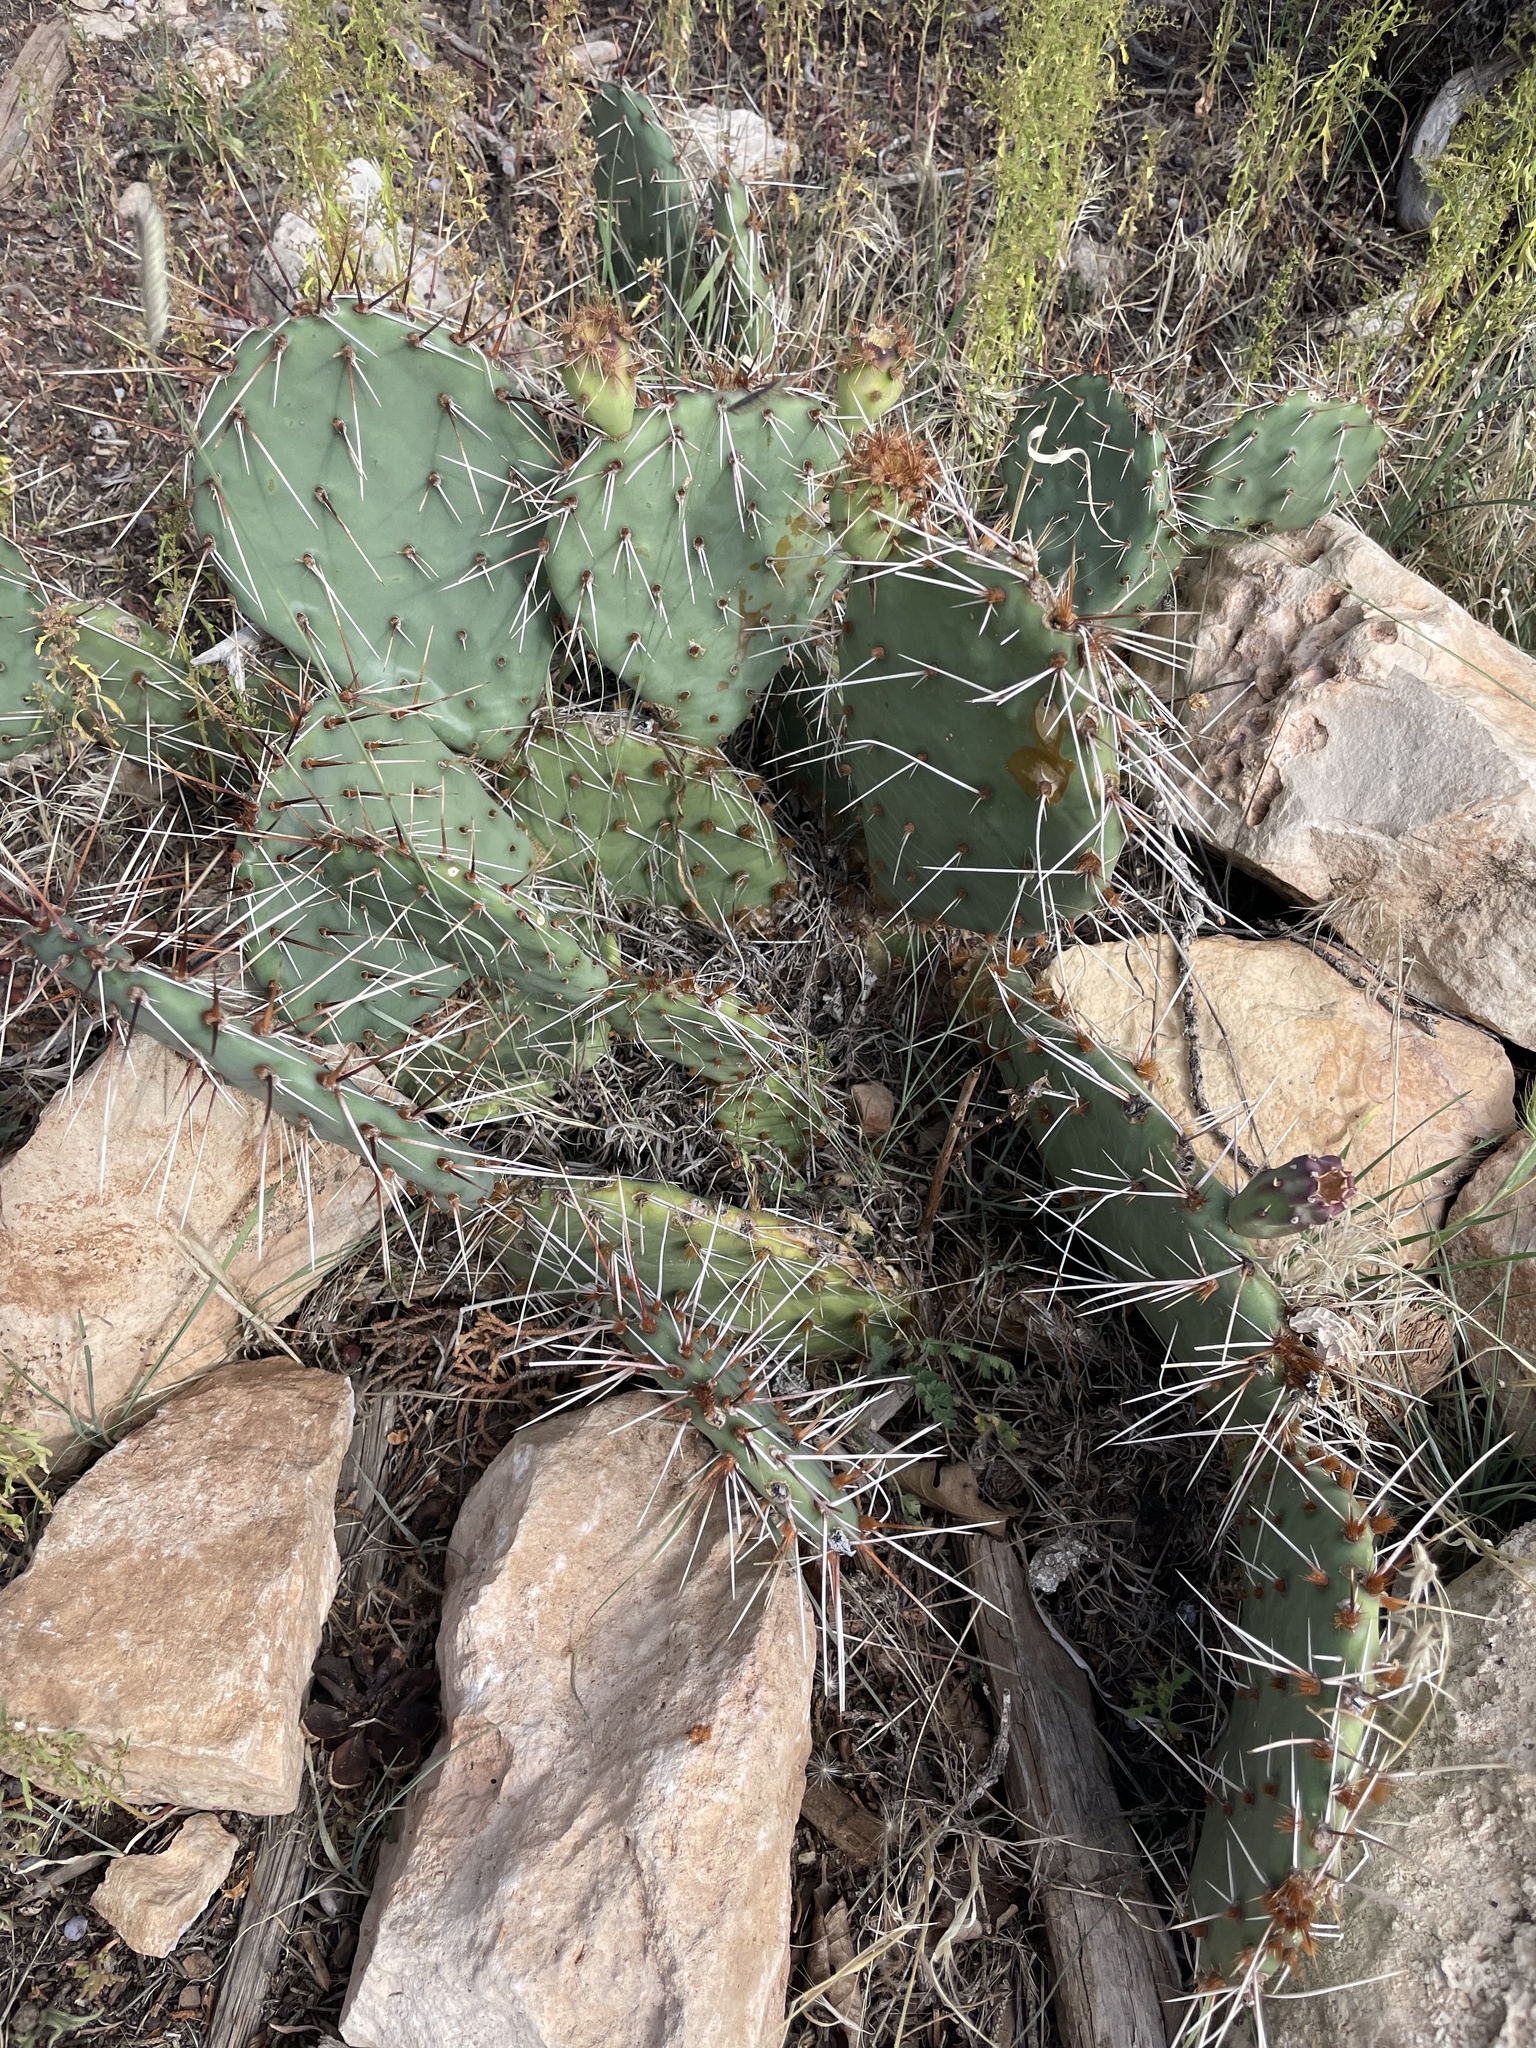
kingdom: Plantae
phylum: Tracheophyta
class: Magnoliopsida
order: Caryophyllales
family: Cactaceae
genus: Opuntia
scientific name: Opuntia phaeacantha
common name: New mexico prickly-pear
